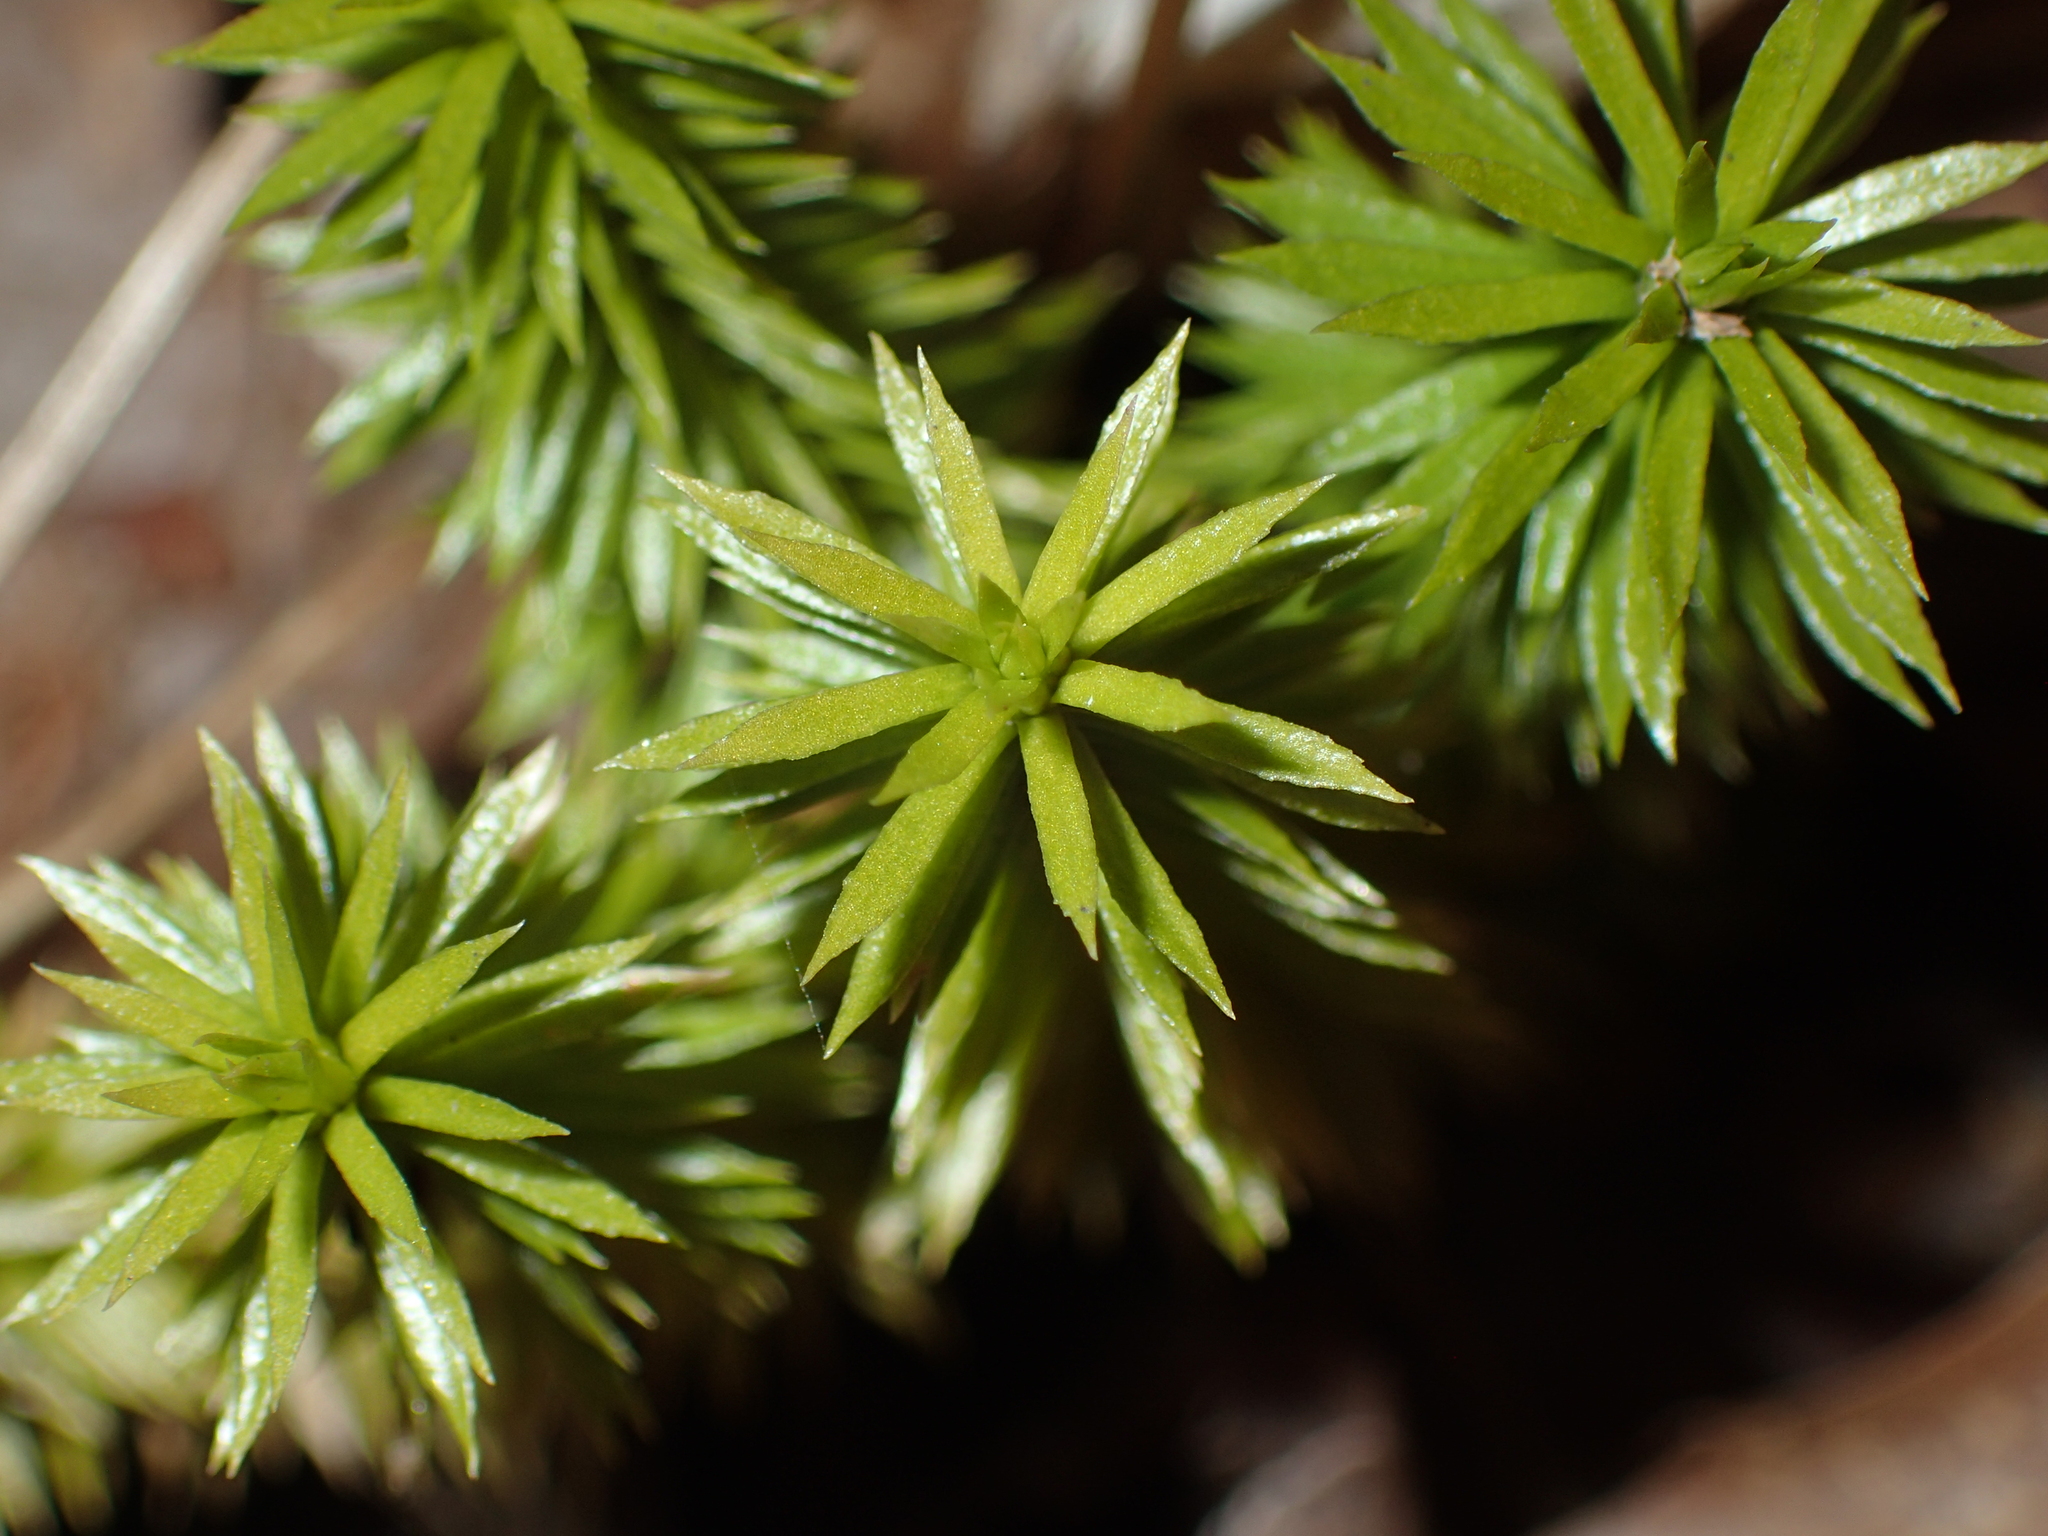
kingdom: Plantae
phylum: Tracheophyta
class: Lycopodiopsida
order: Lycopodiales
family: Lycopodiaceae
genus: Huperzia
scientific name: Huperzia lucidula
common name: Shining clubmoss
